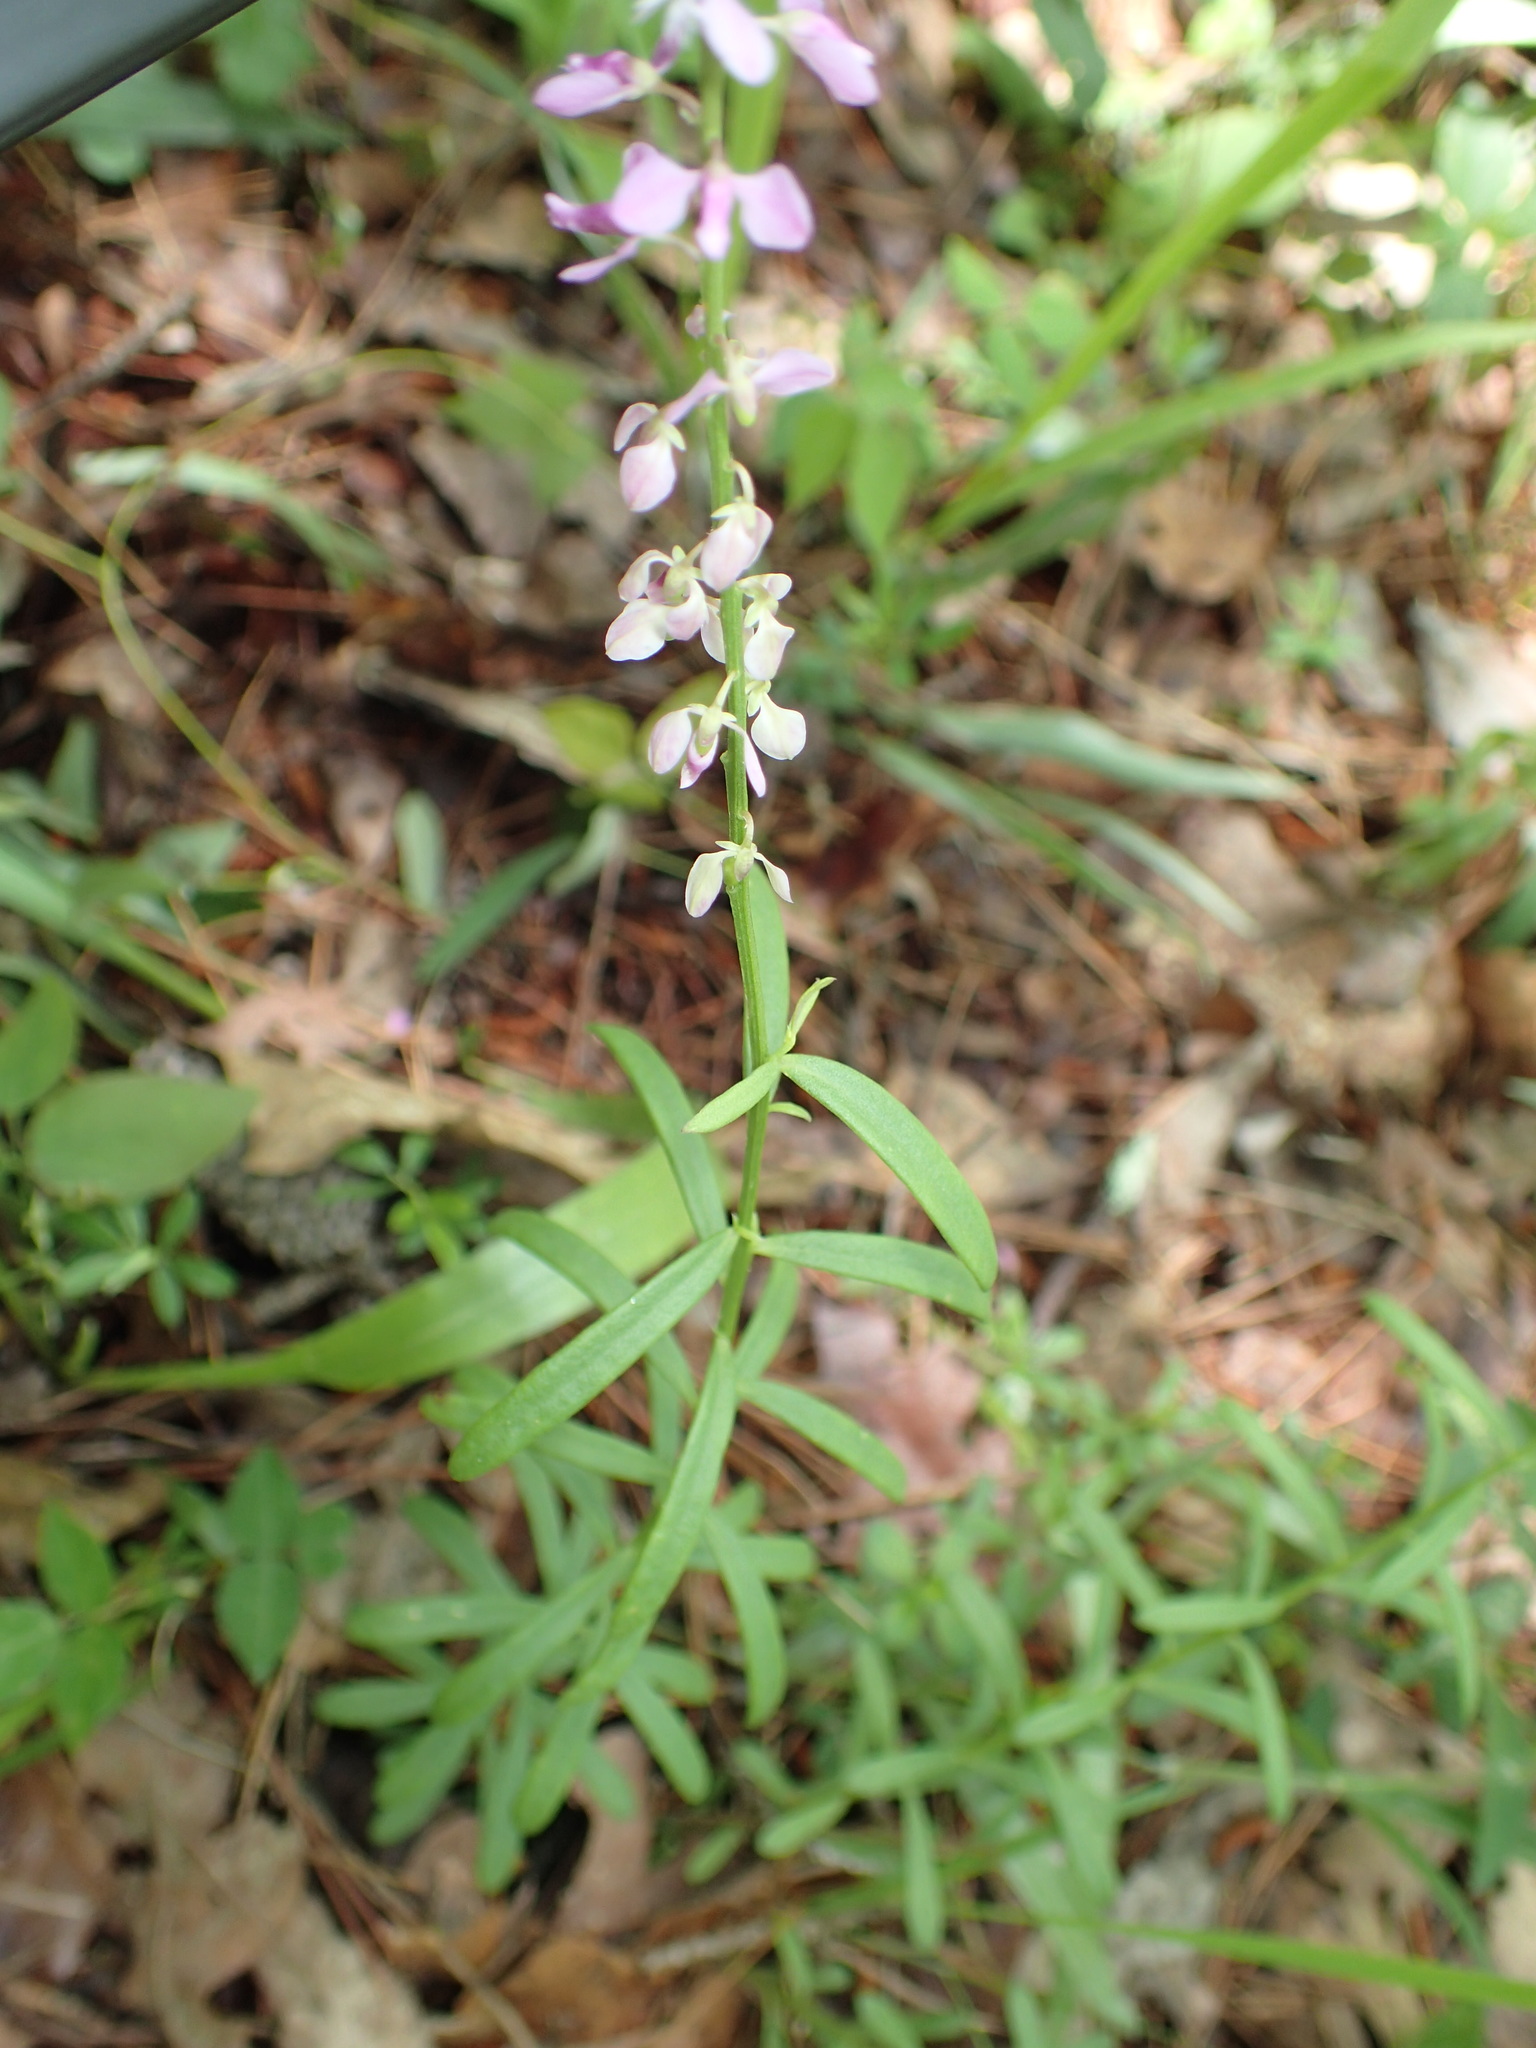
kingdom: Plantae
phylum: Tracheophyta
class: Magnoliopsida
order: Fabales
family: Polygalaceae
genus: Polygala
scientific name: Polygala polygama
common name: Bitter milkwort
